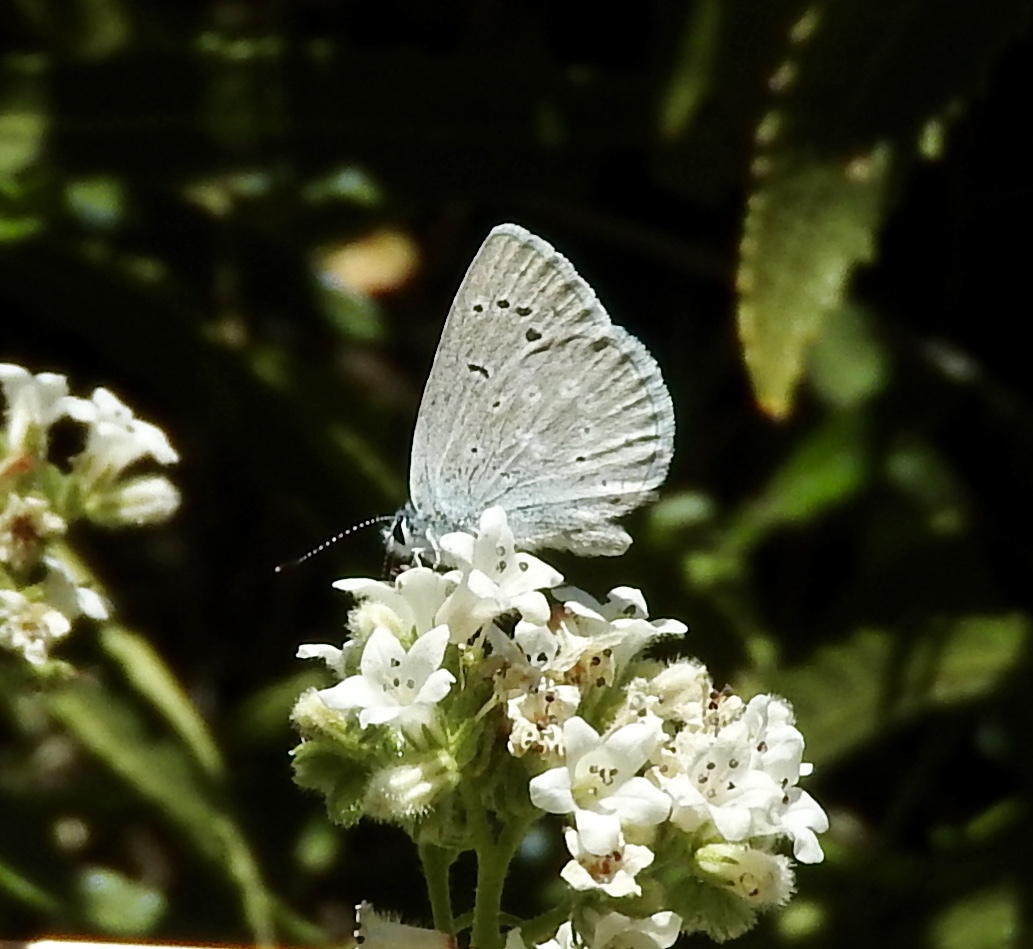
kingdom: Animalia
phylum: Arthropoda
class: Insecta
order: Lepidoptera
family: Lycaenidae
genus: Icaricia
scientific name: Icaricia icarioides
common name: Boisduval's blue
